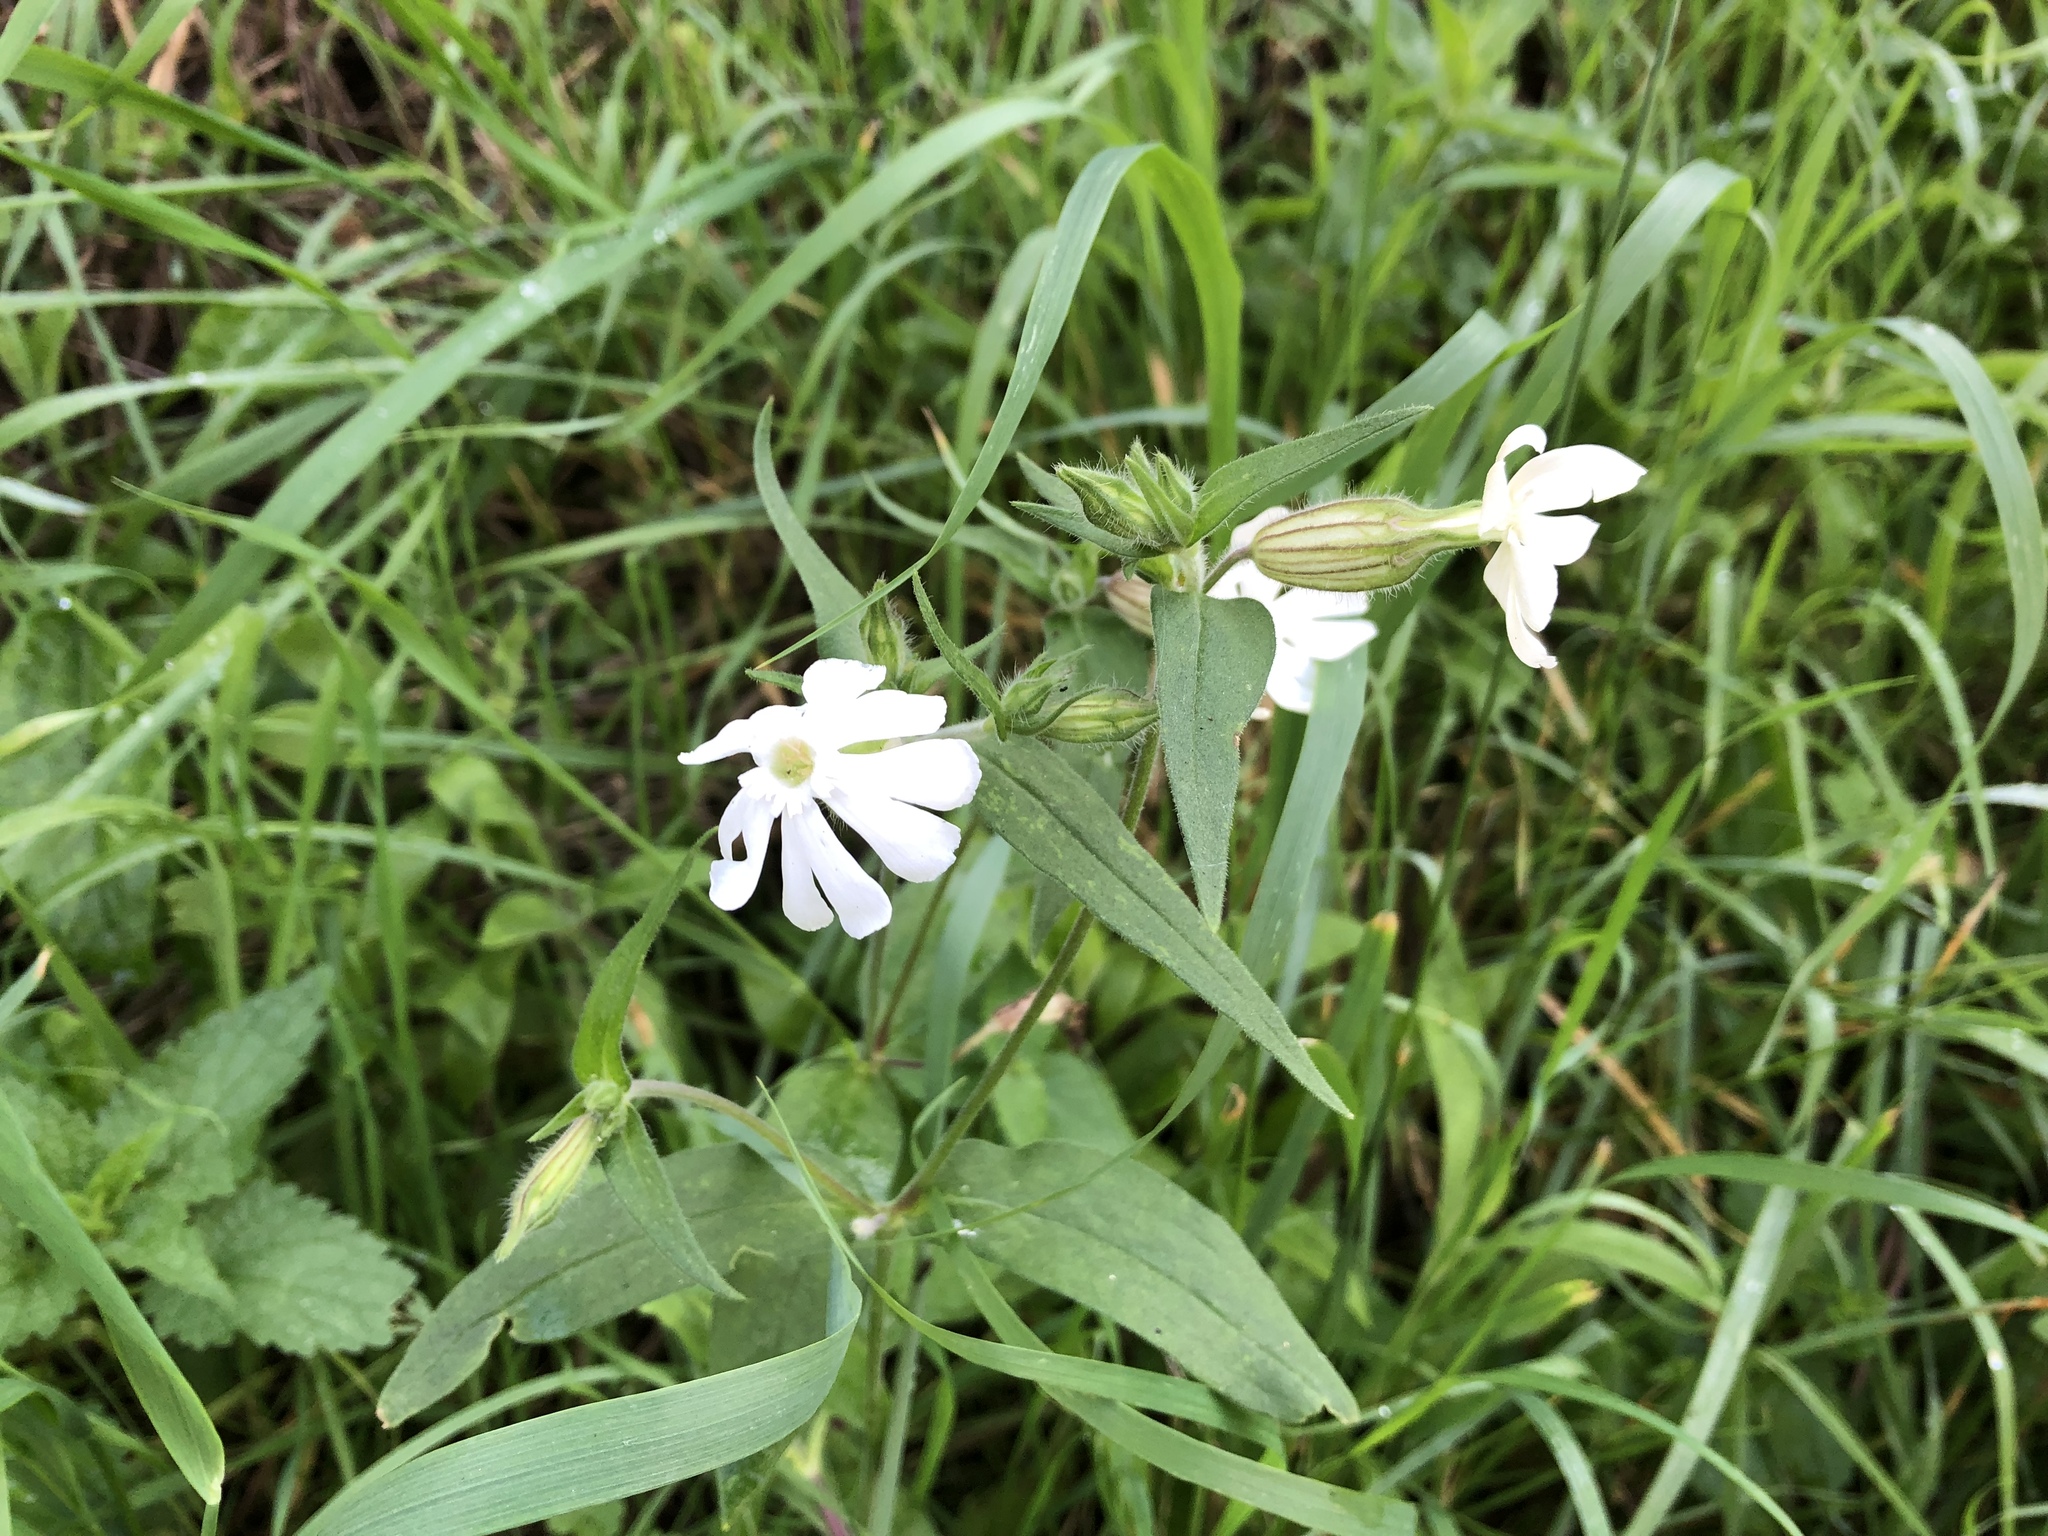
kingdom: Plantae
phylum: Tracheophyta
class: Magnoliopsida
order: Caryophyllales
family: Caryophyllaceae
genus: Silene
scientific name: Silene latifolia
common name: White campion
